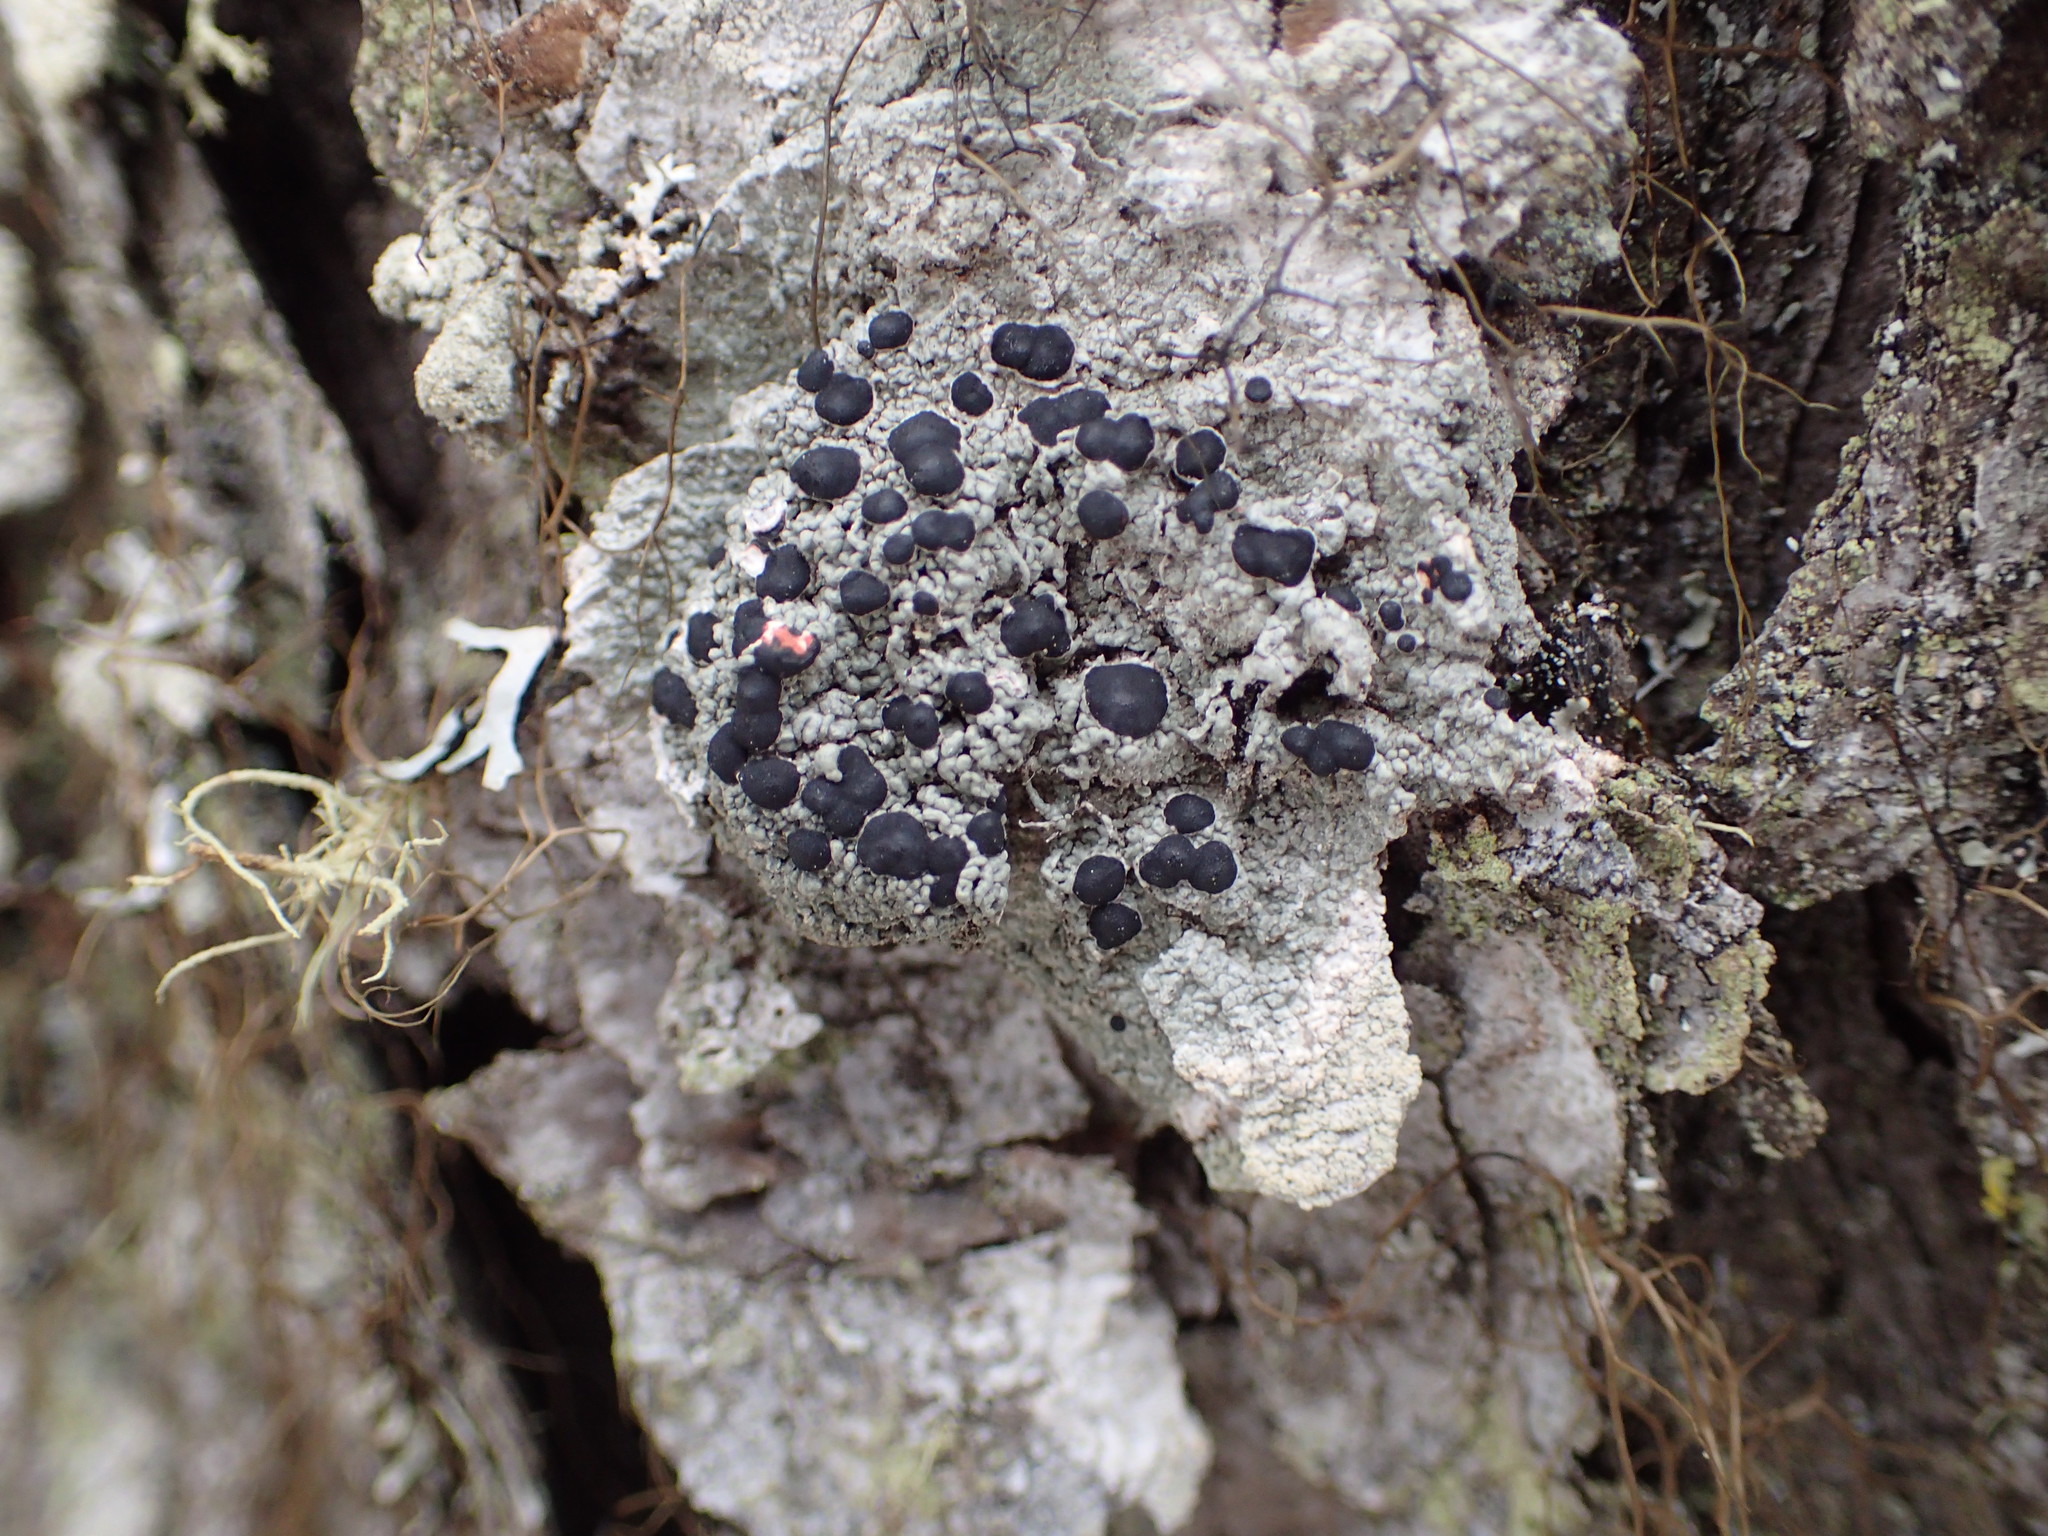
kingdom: Fungi
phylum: Ascomycota
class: Lecanoromycetes
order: Lecanorales
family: Tephromelataceae
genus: Mycoblastus
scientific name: Mycoblastus sanguinarius
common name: Bloody-heart lichen
